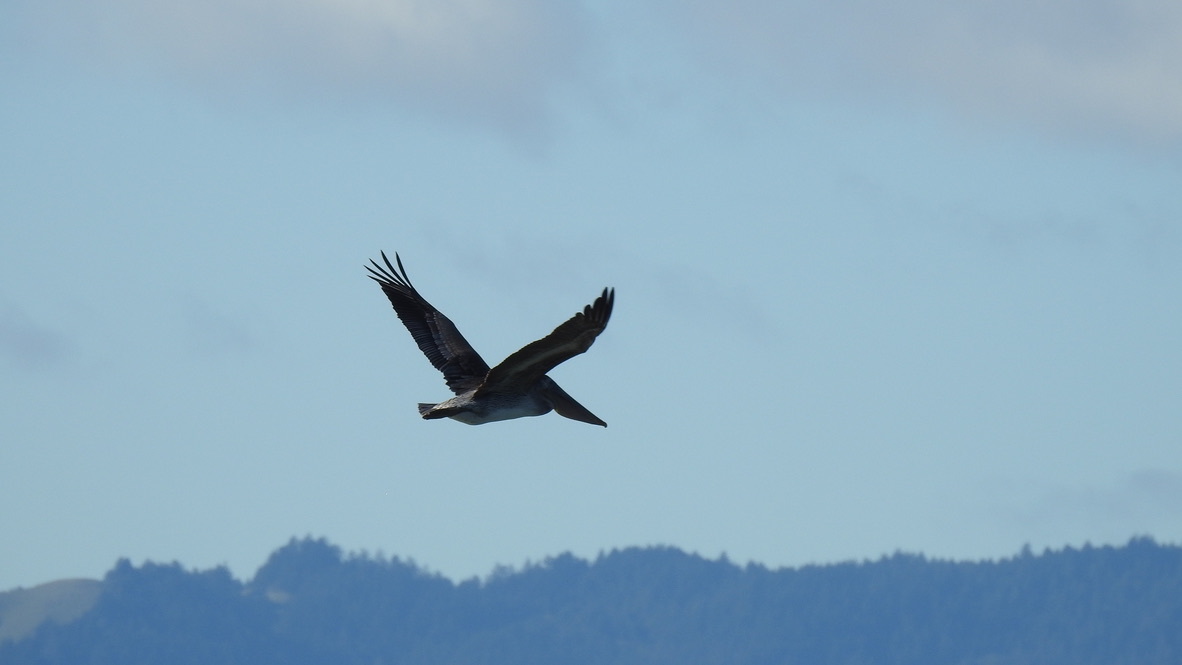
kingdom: Animalia
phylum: Chordata
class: Aves
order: Pelecaniformes
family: Pelecanidae
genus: Pelecanus
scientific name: Pelecanus occidentalis
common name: Brown pelican
